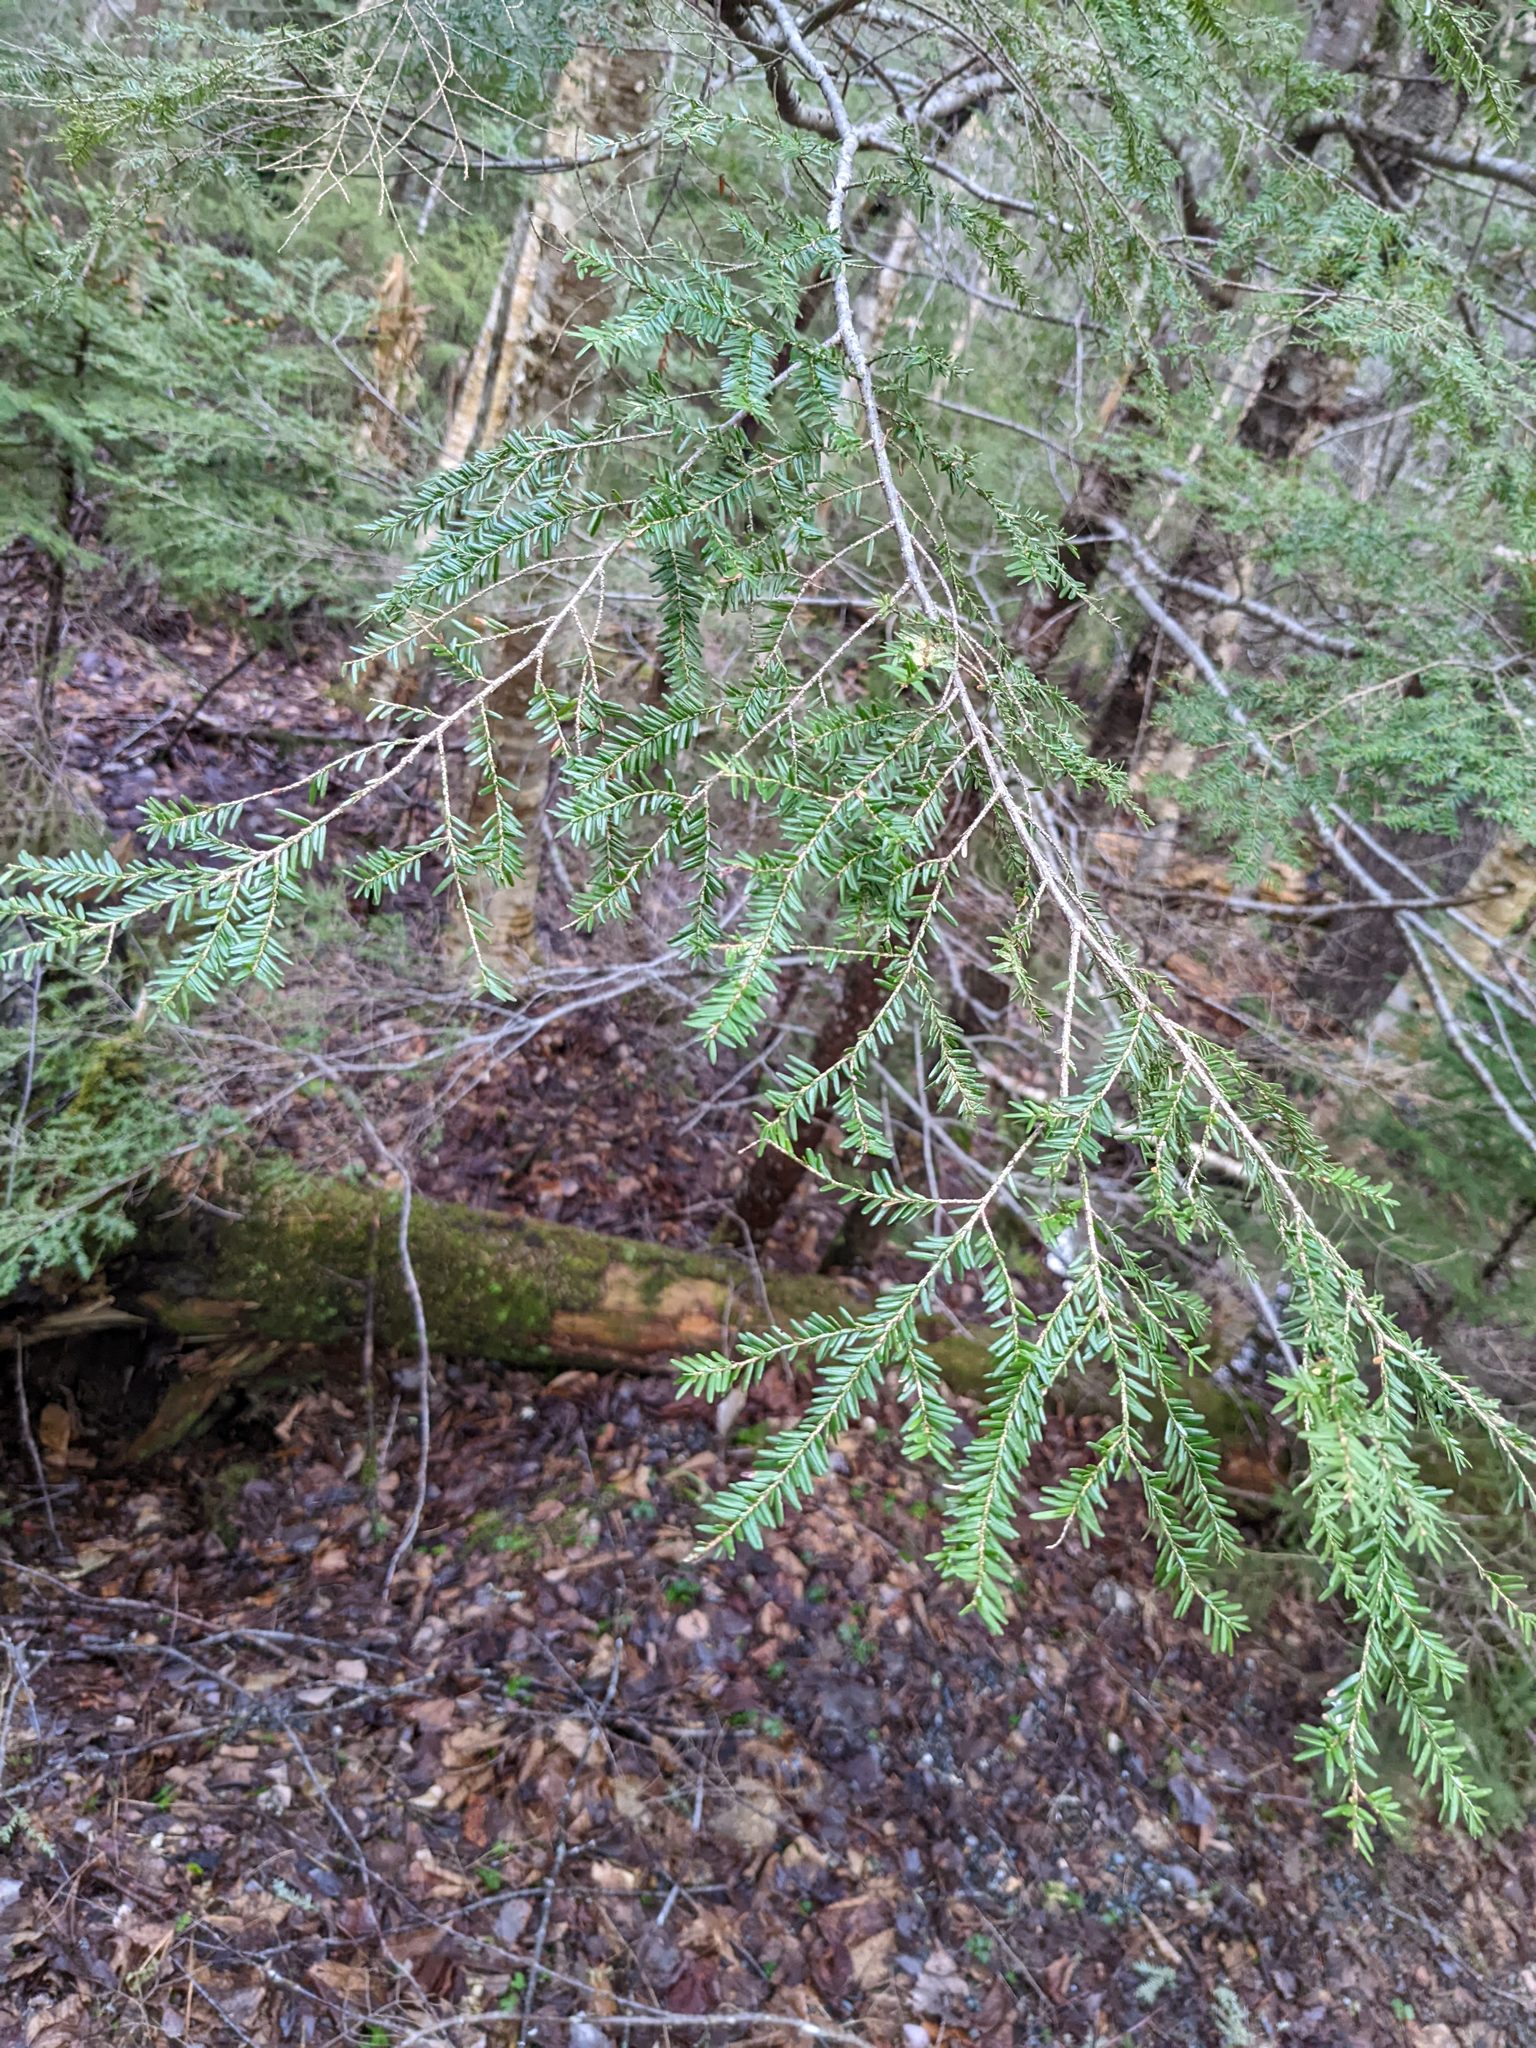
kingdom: Plantae
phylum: Tracheophyta
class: Pinopsida
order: Pinales
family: Pinaceae
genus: Tsuga
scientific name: Tsuga canadensis
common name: Eastern hemlock
